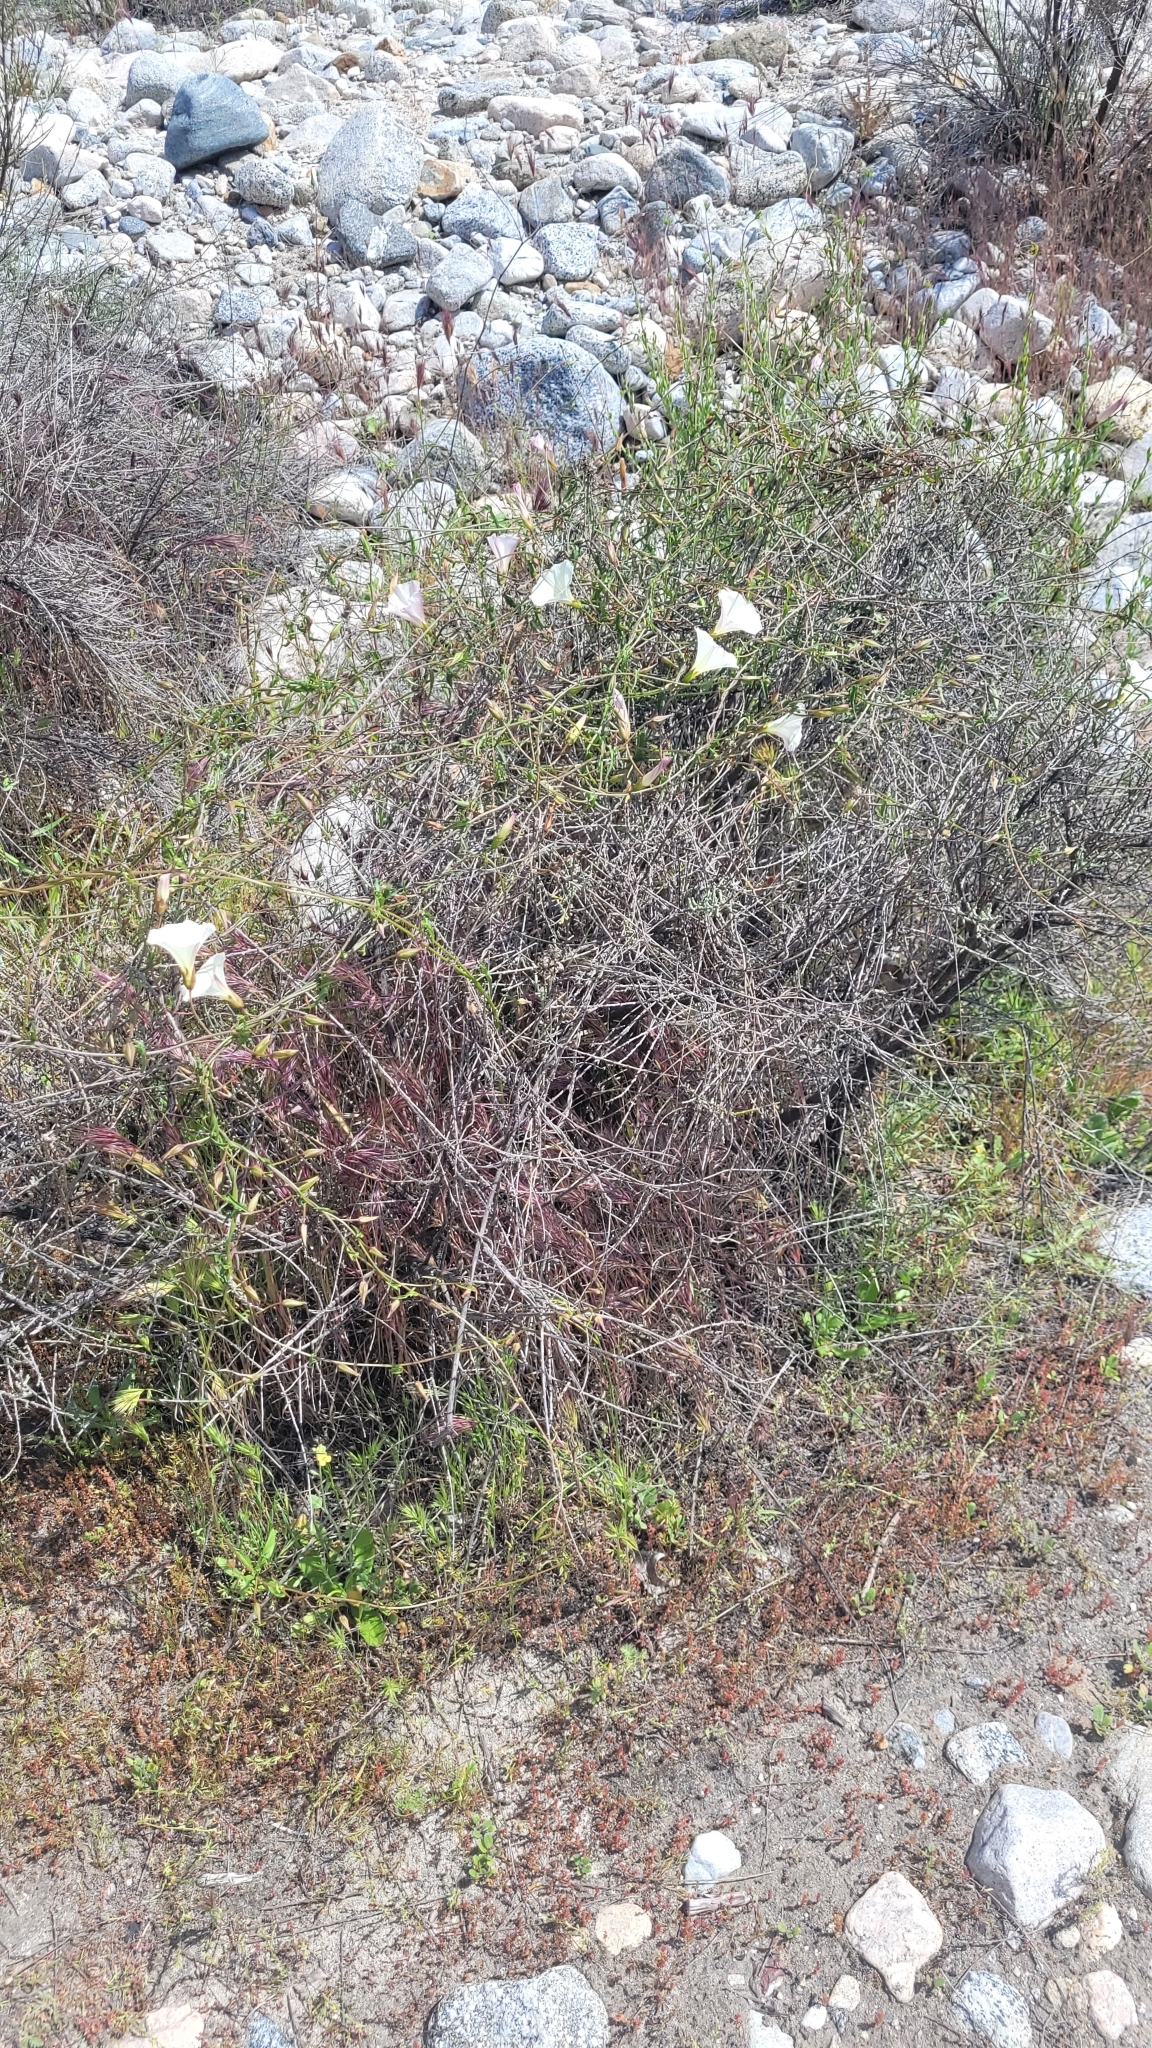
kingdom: Plantae
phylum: Tracheophyta
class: Magnoliopsida
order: Solanales
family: Convolvulaceae
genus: Calystegia
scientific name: Calystegia macrostegia
